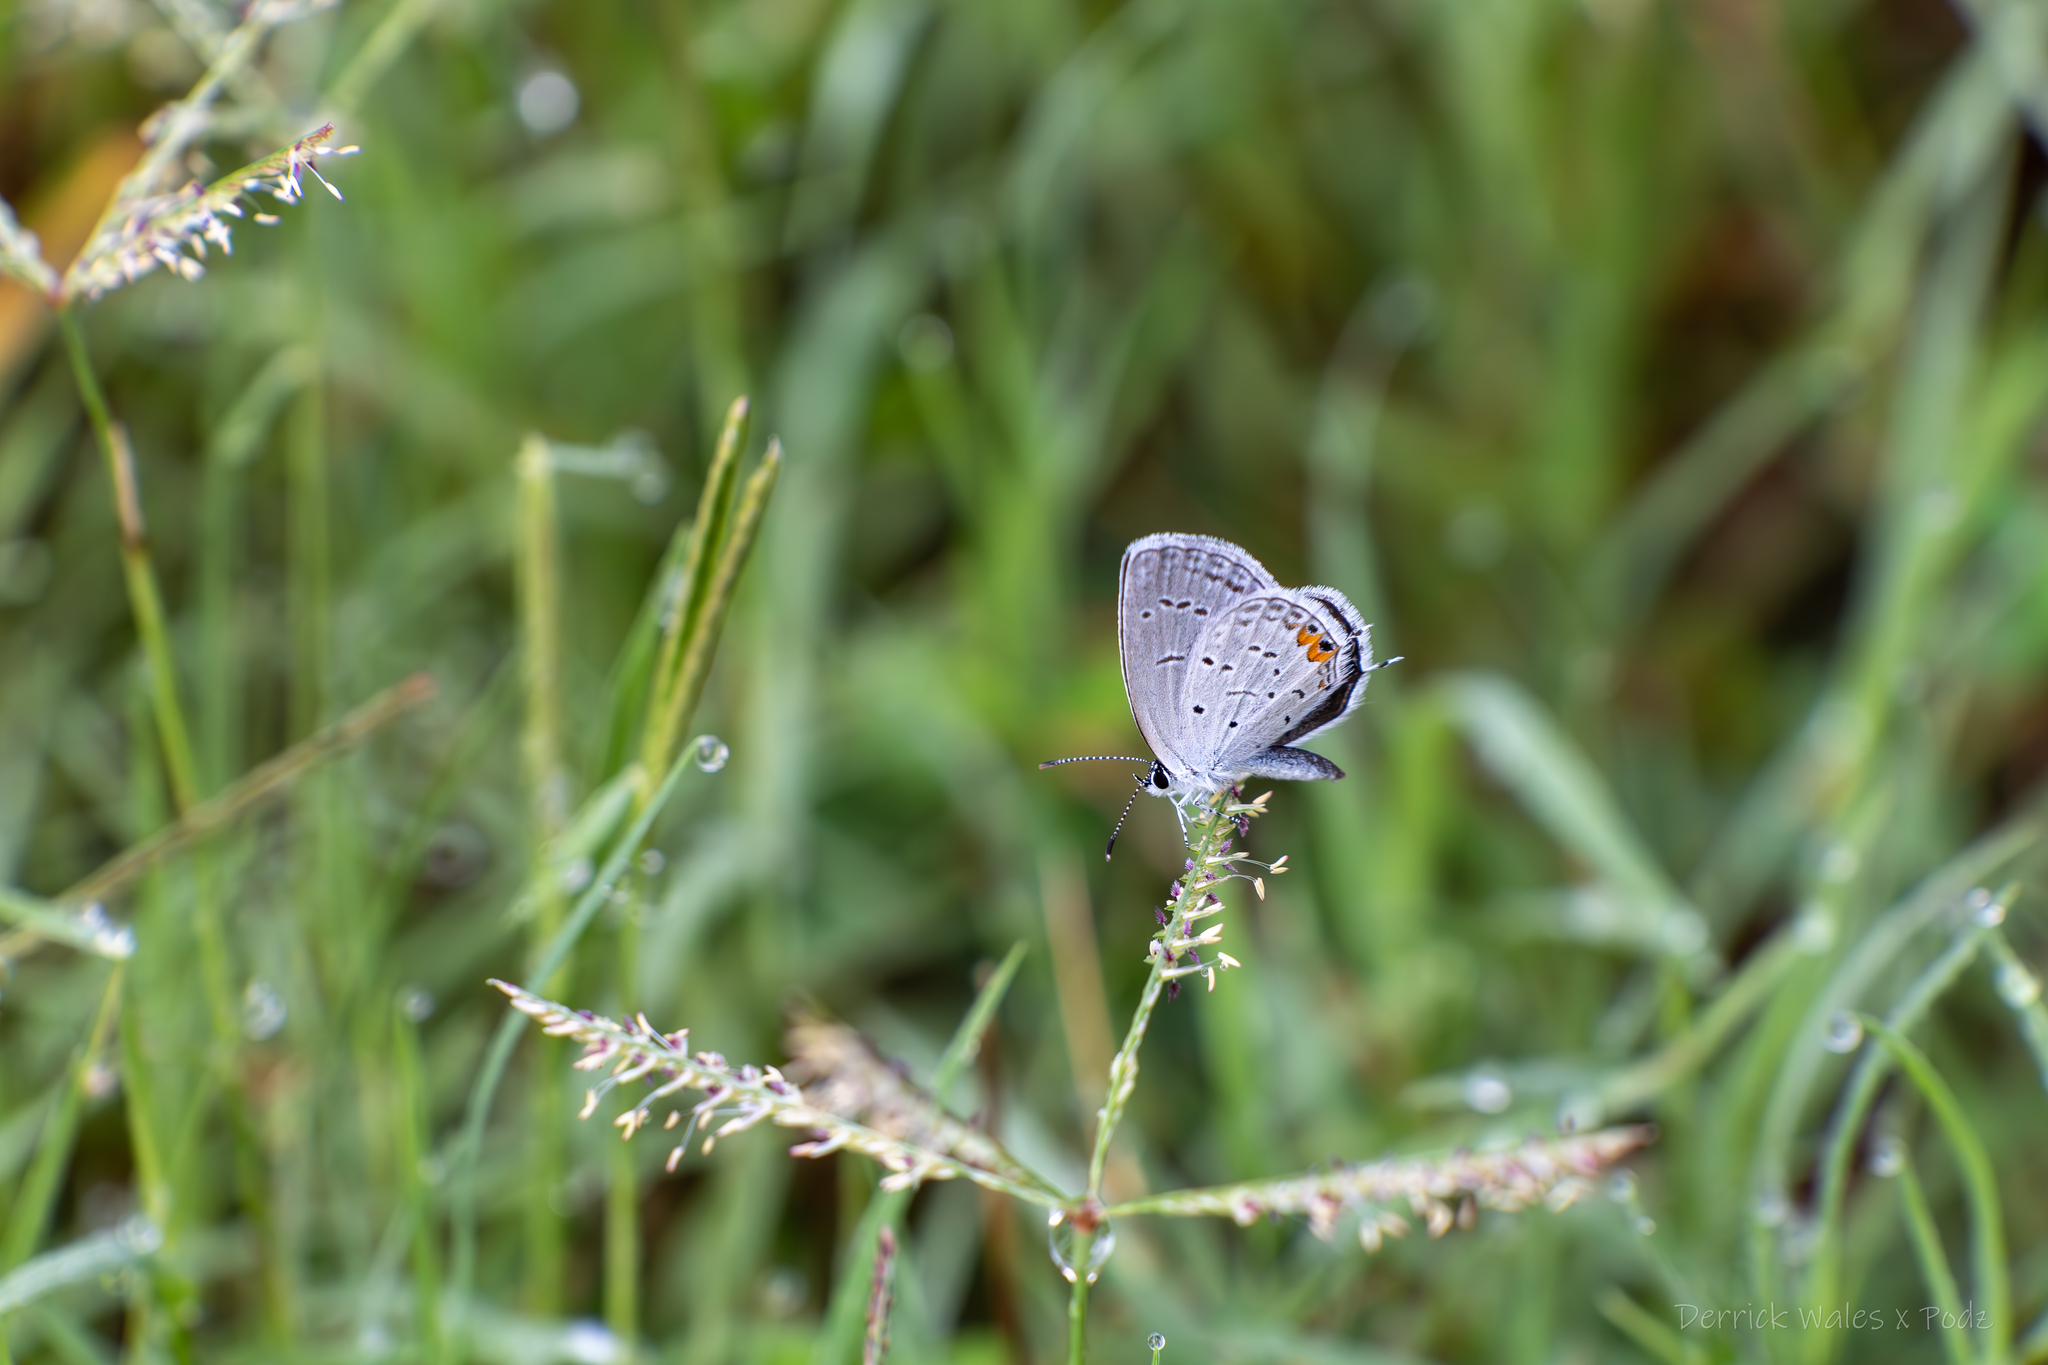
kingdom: Animalia
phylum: Arthropoda
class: Insecta
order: Lepidoptera
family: Lycaenidae
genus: Elkalyce
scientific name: Elkalyce comyntas
